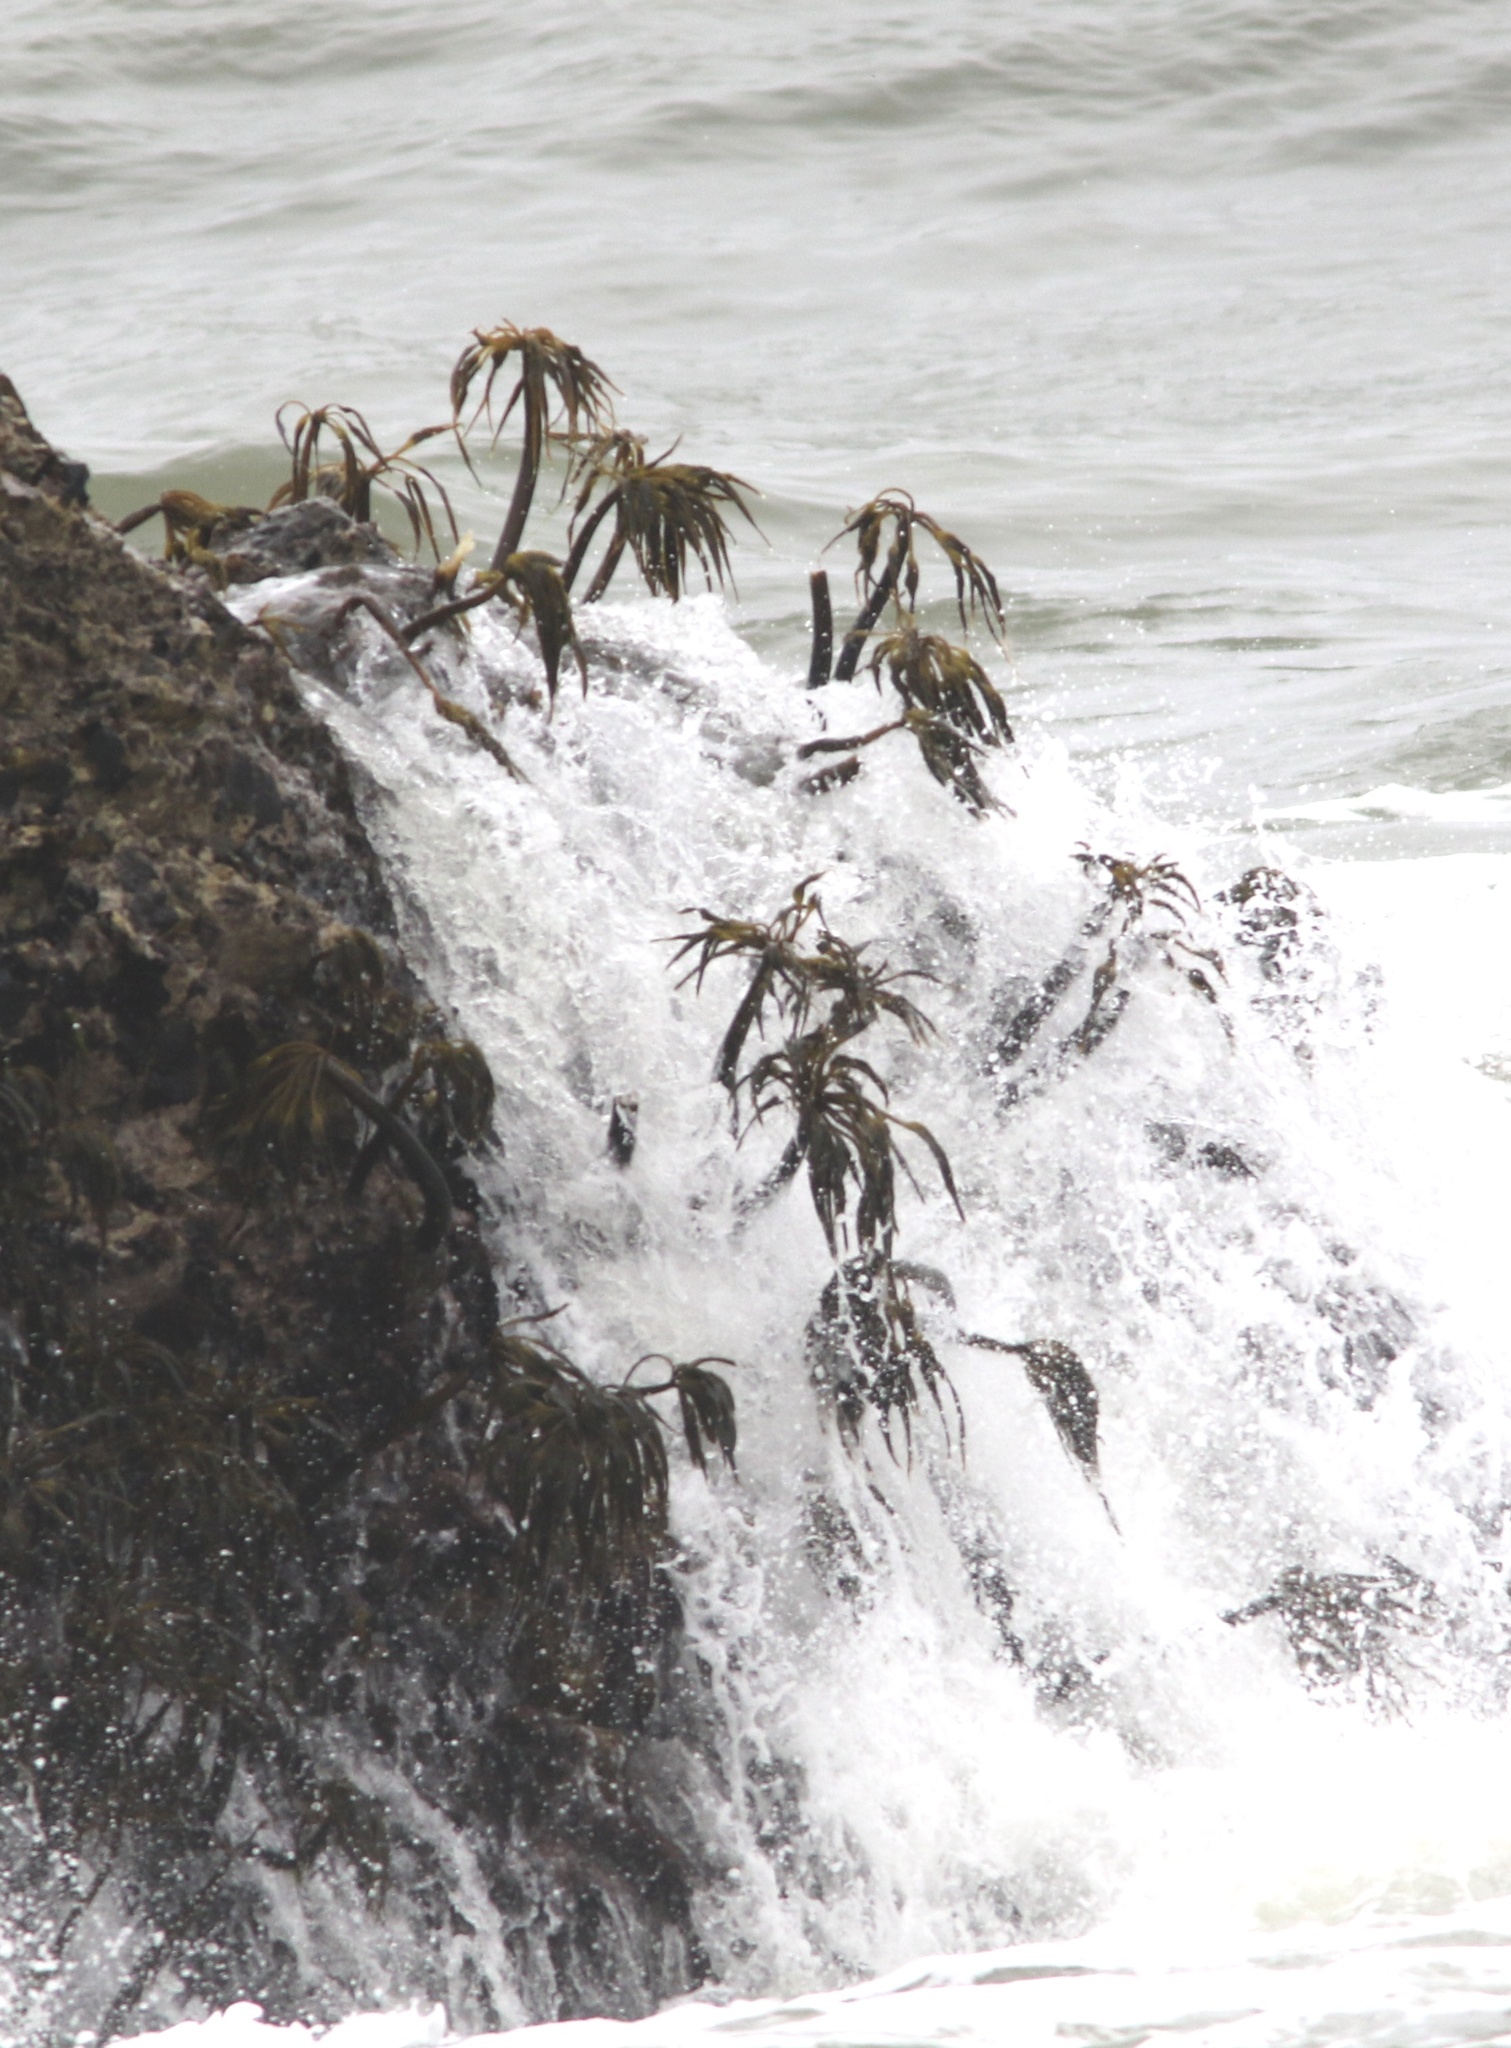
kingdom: Chromista
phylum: Ochrophyta
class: Phaeophyceae
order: Laminariales
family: Laminariaceae
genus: Postelsia
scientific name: Postelsia palmiformis
